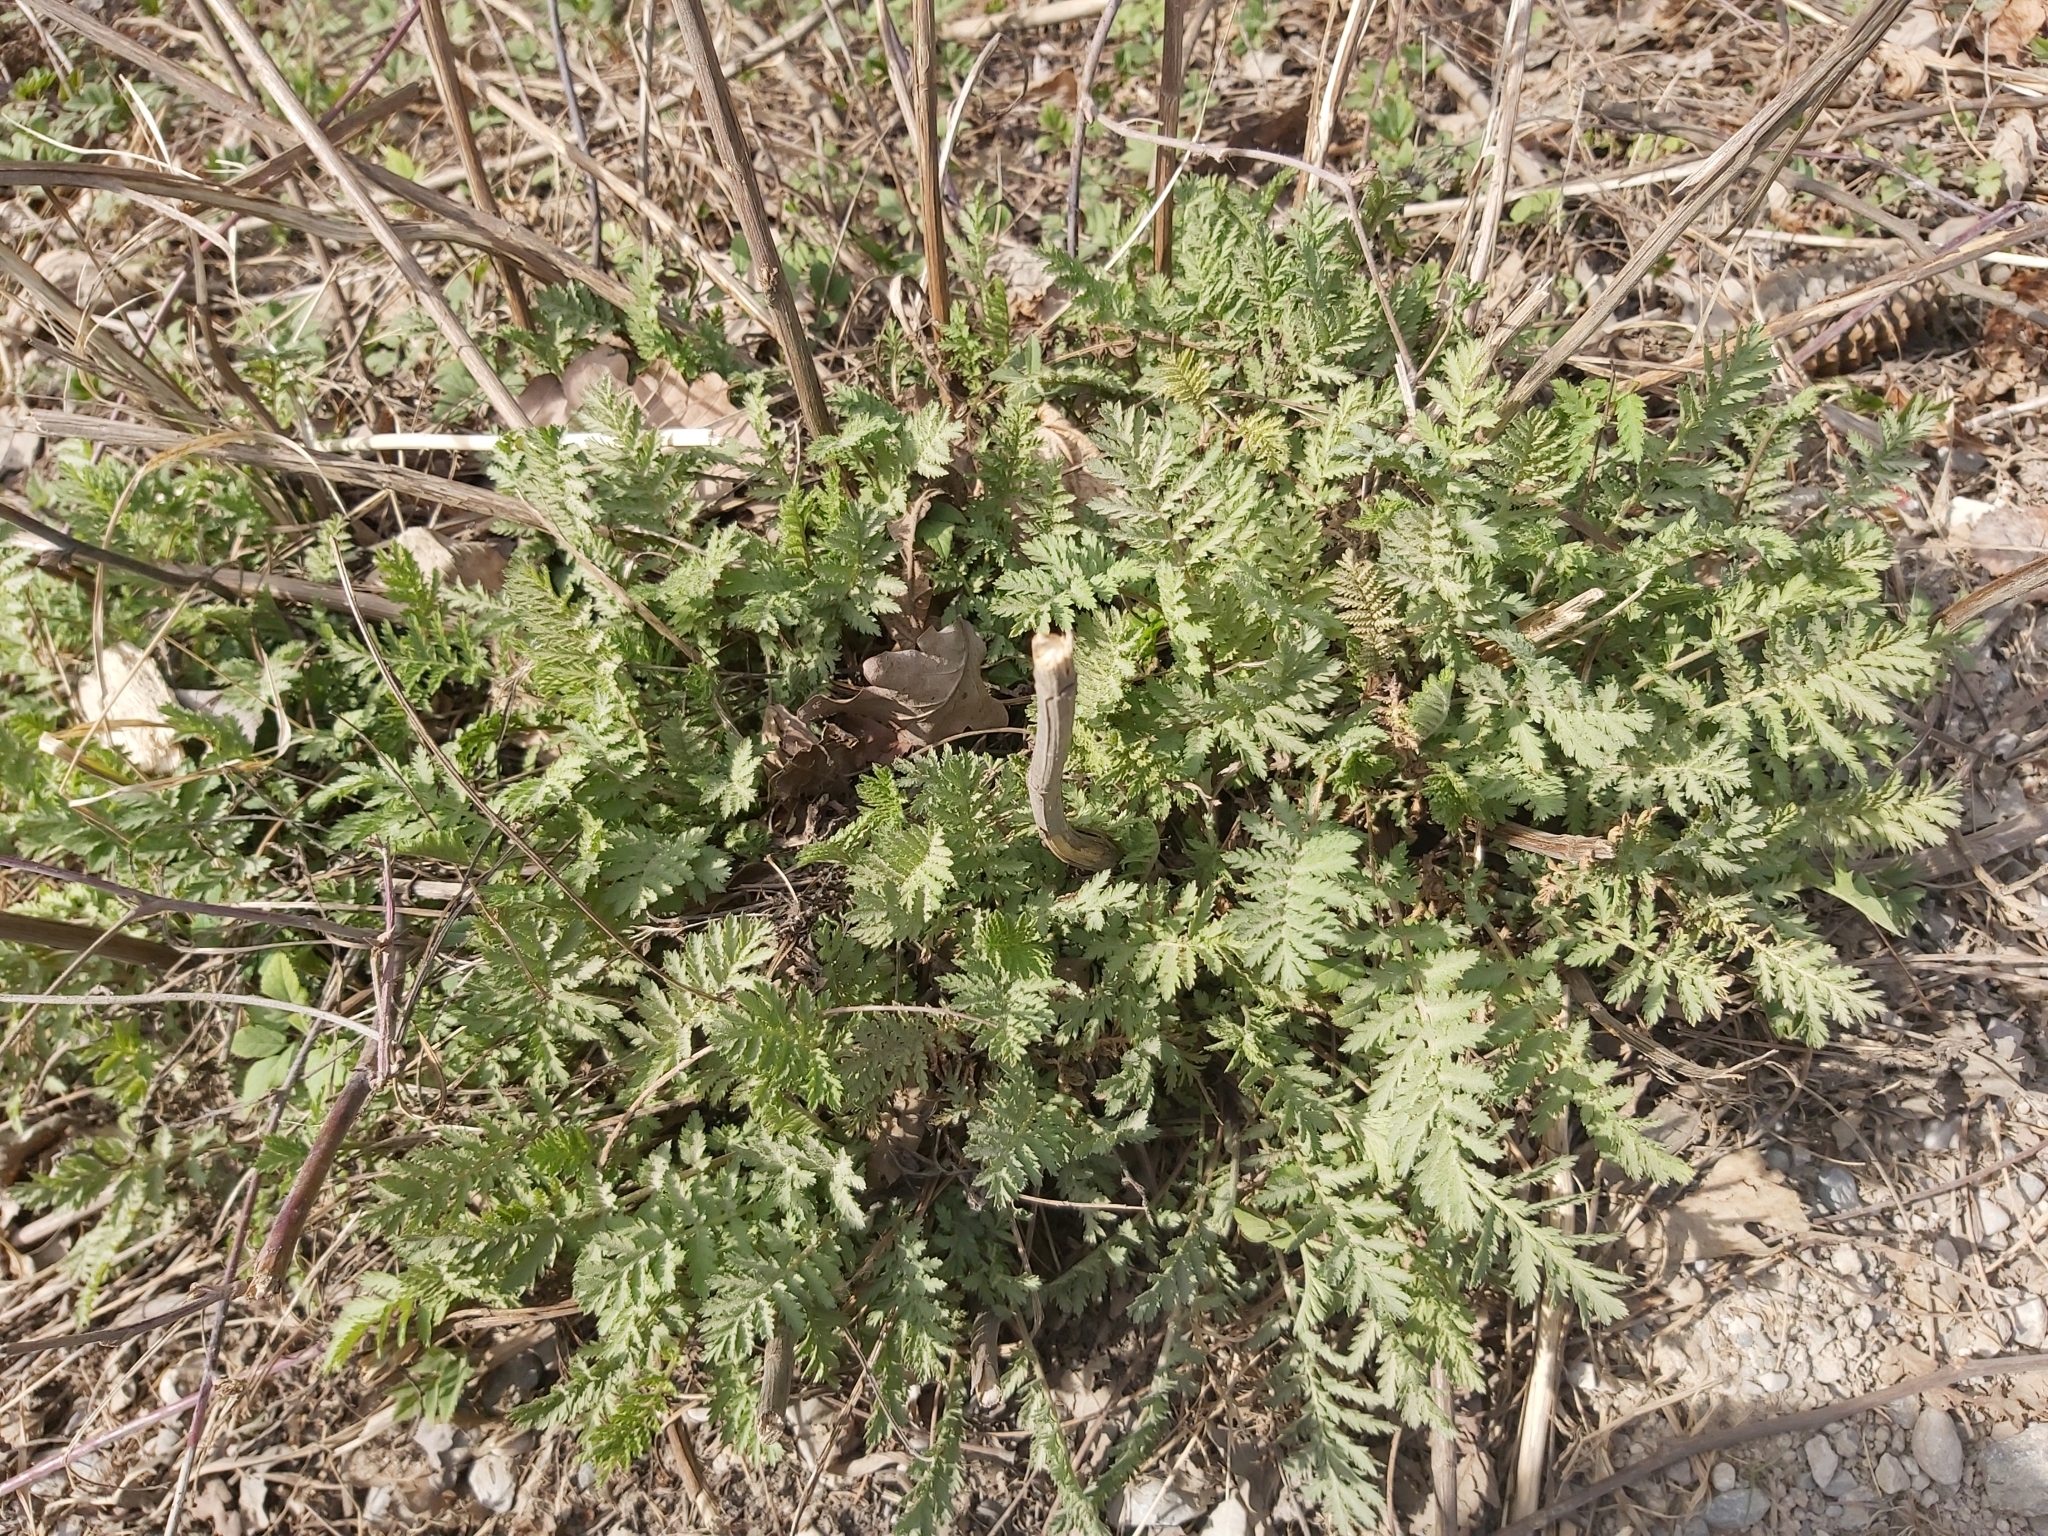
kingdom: Plantae
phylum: Tracheophyta
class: Magnoliopsida
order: Asterales
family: Asteraceae
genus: Tanacetum
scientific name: Tanacetum vulgare
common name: Common tansy
